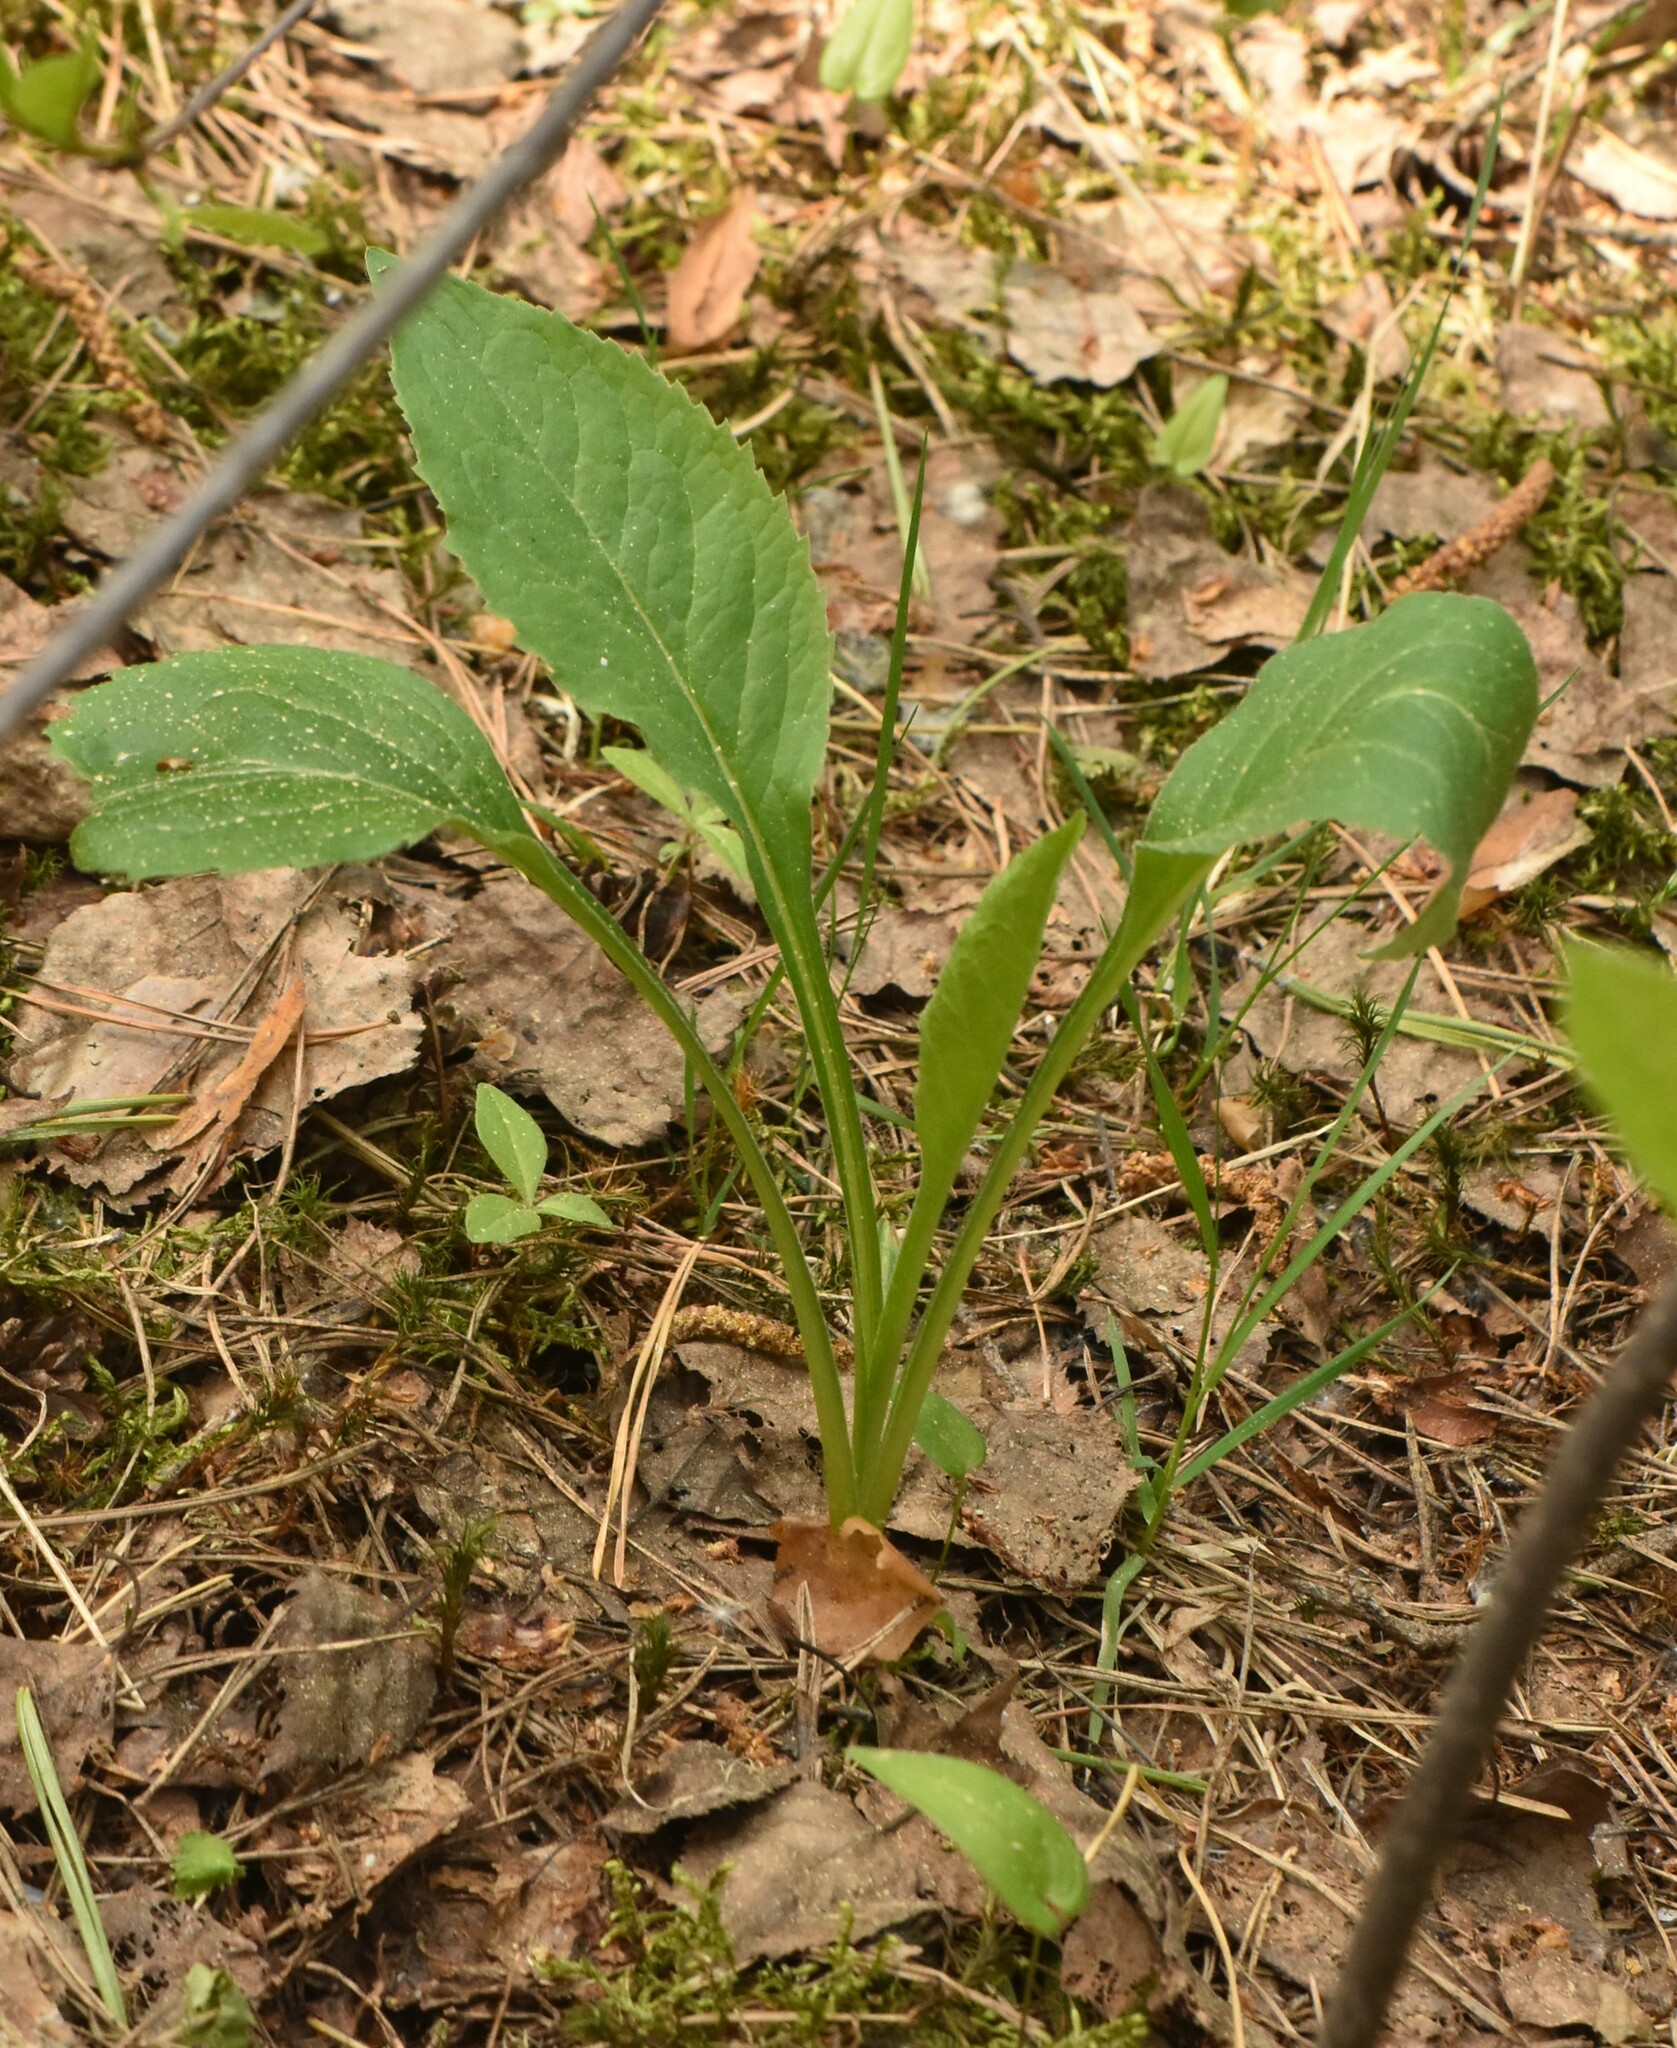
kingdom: Plantae
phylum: Tracheophyta
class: Magnoliopsida
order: Asterales
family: Asteraceae
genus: Solidago
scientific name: Solidago virgaurea
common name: Goldenrod
